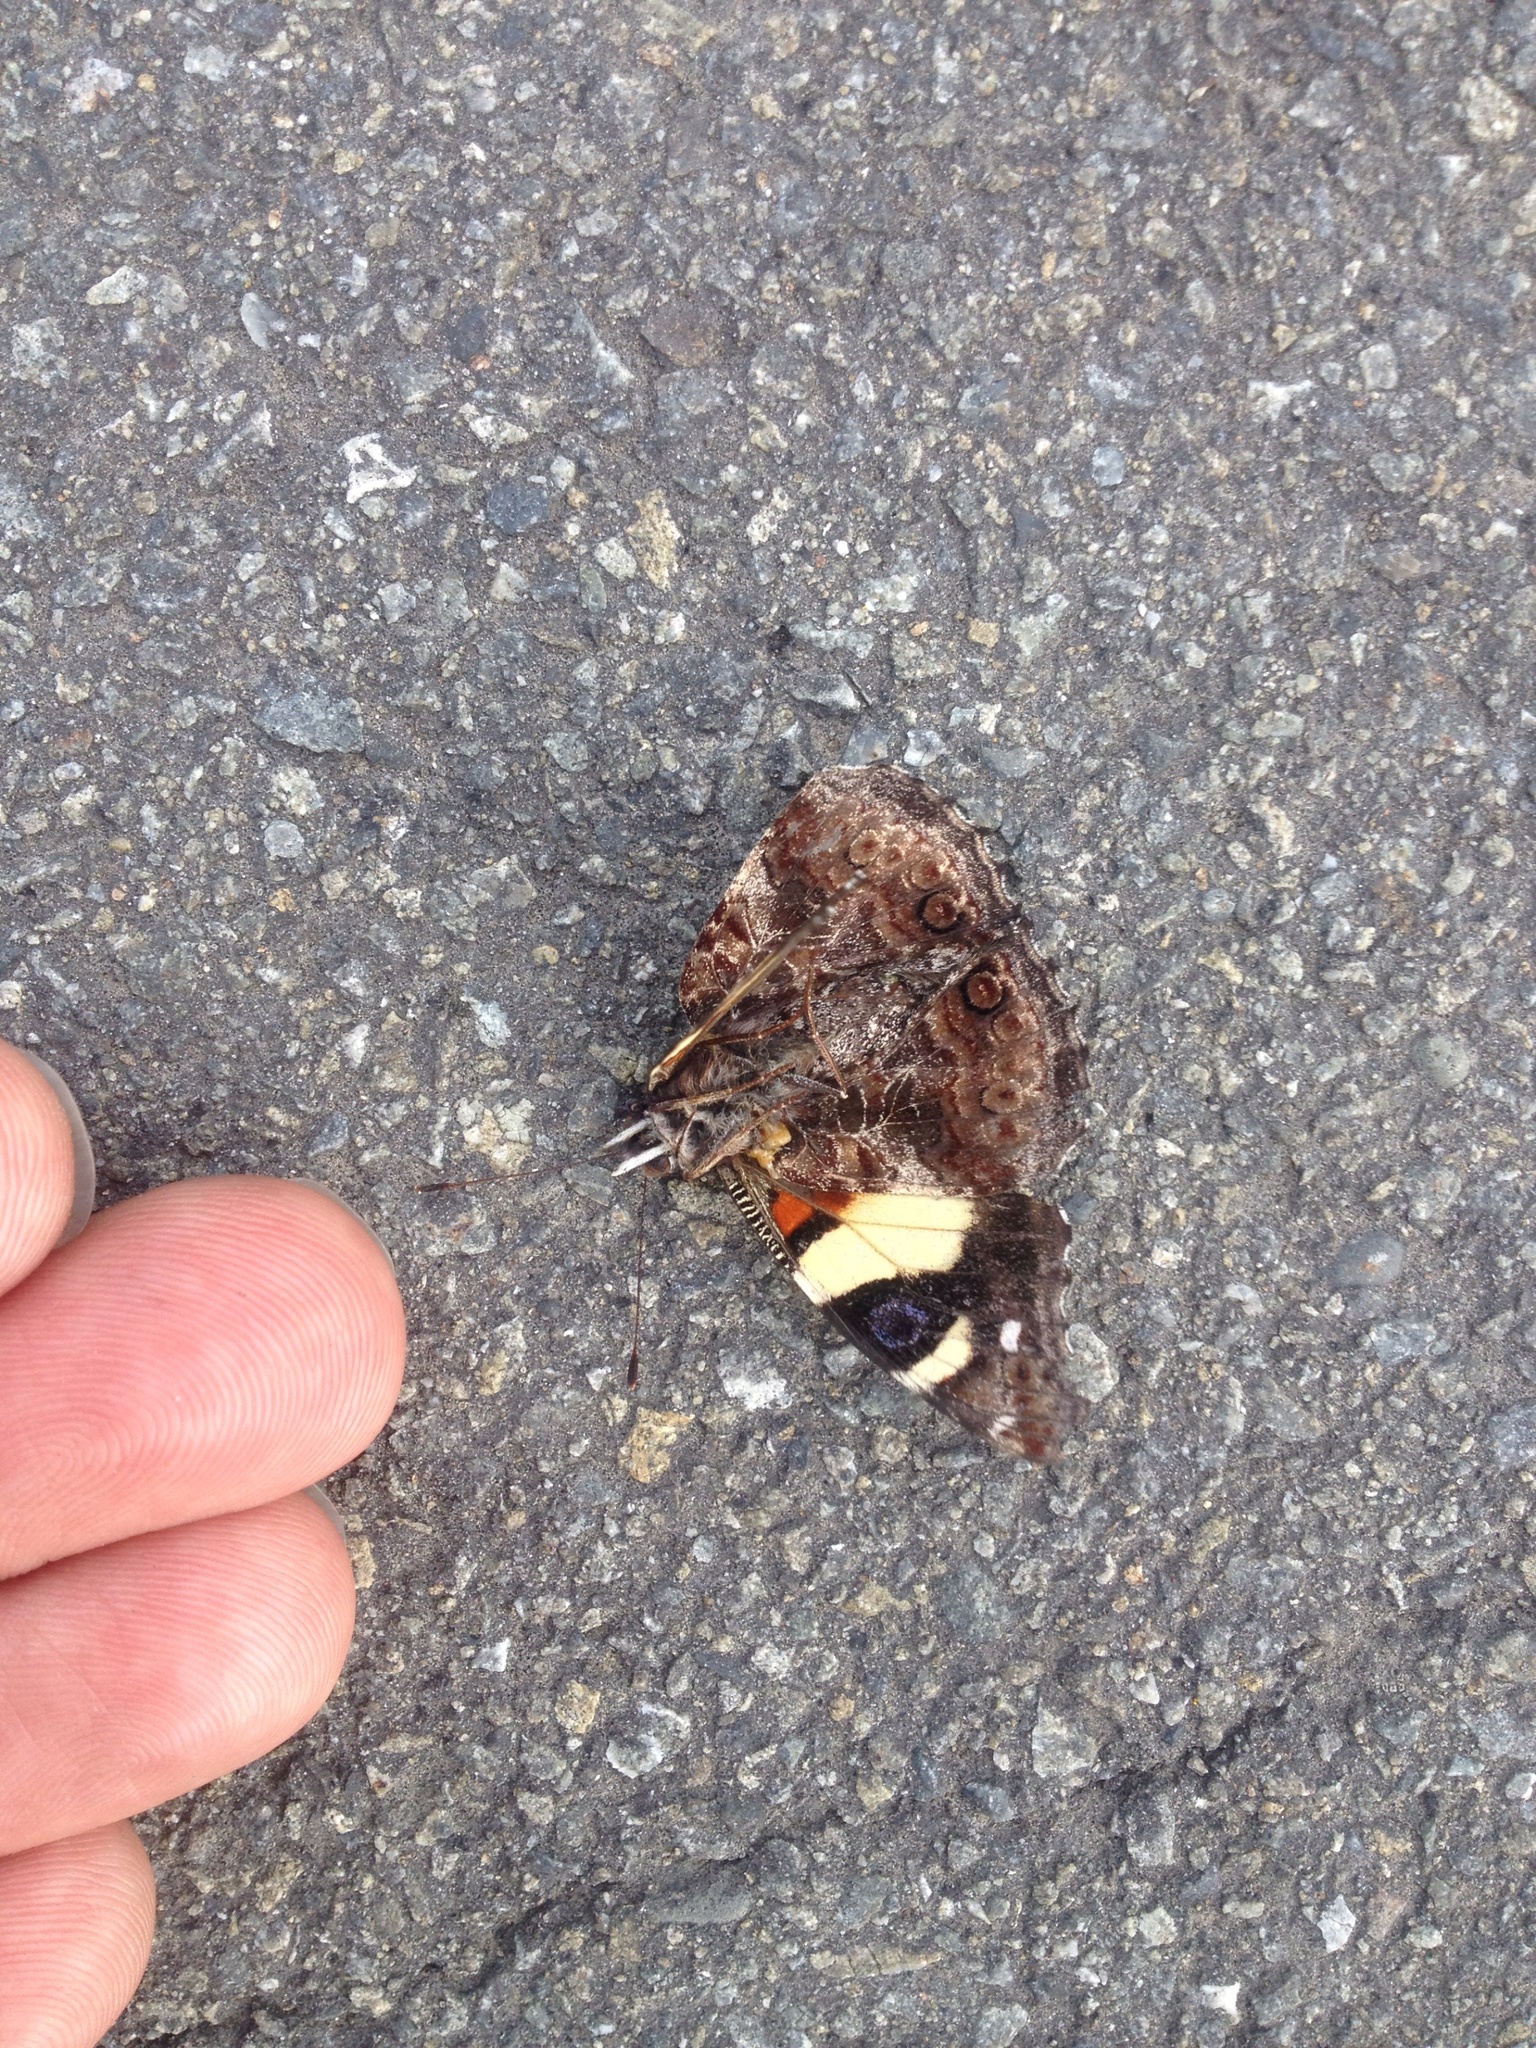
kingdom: Animalia
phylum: Arthropoda
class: Insecta
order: Lepidoptera
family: Nymphalidae
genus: Vanessa
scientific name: Vanessa itea
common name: Yellow admiral
